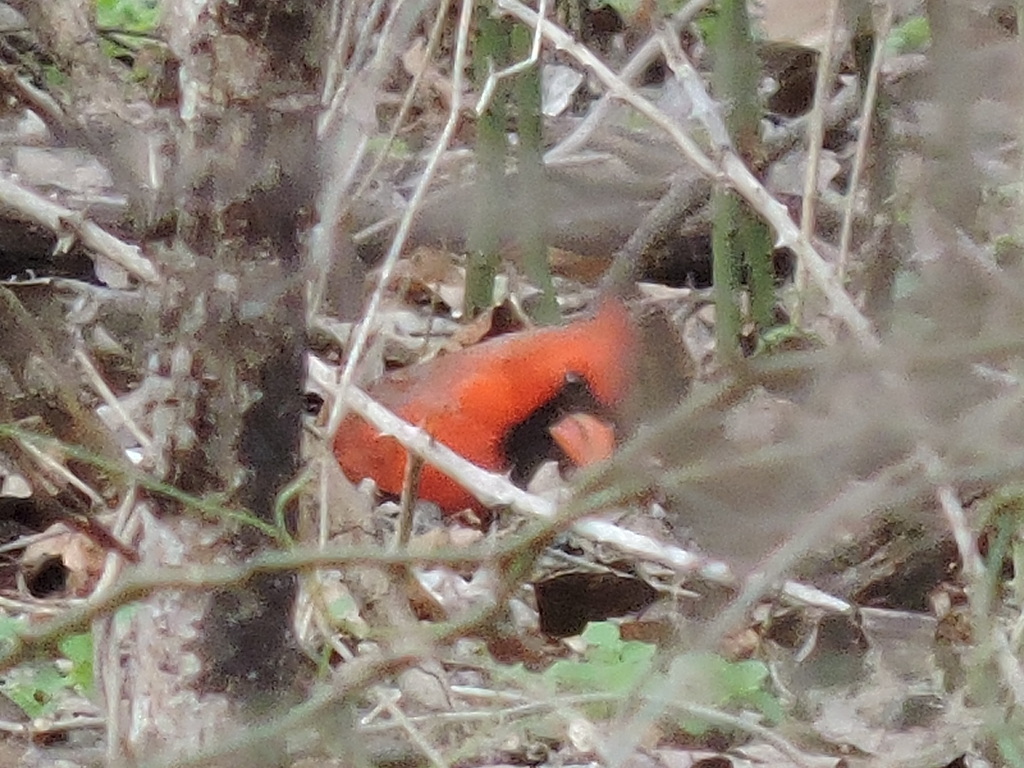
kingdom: Animalia
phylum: Chordata
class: Aves
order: Passeriformes
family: Cardinalidae
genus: Cardinalis
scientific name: Cardinalis cardinalis
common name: Northern cardinal
